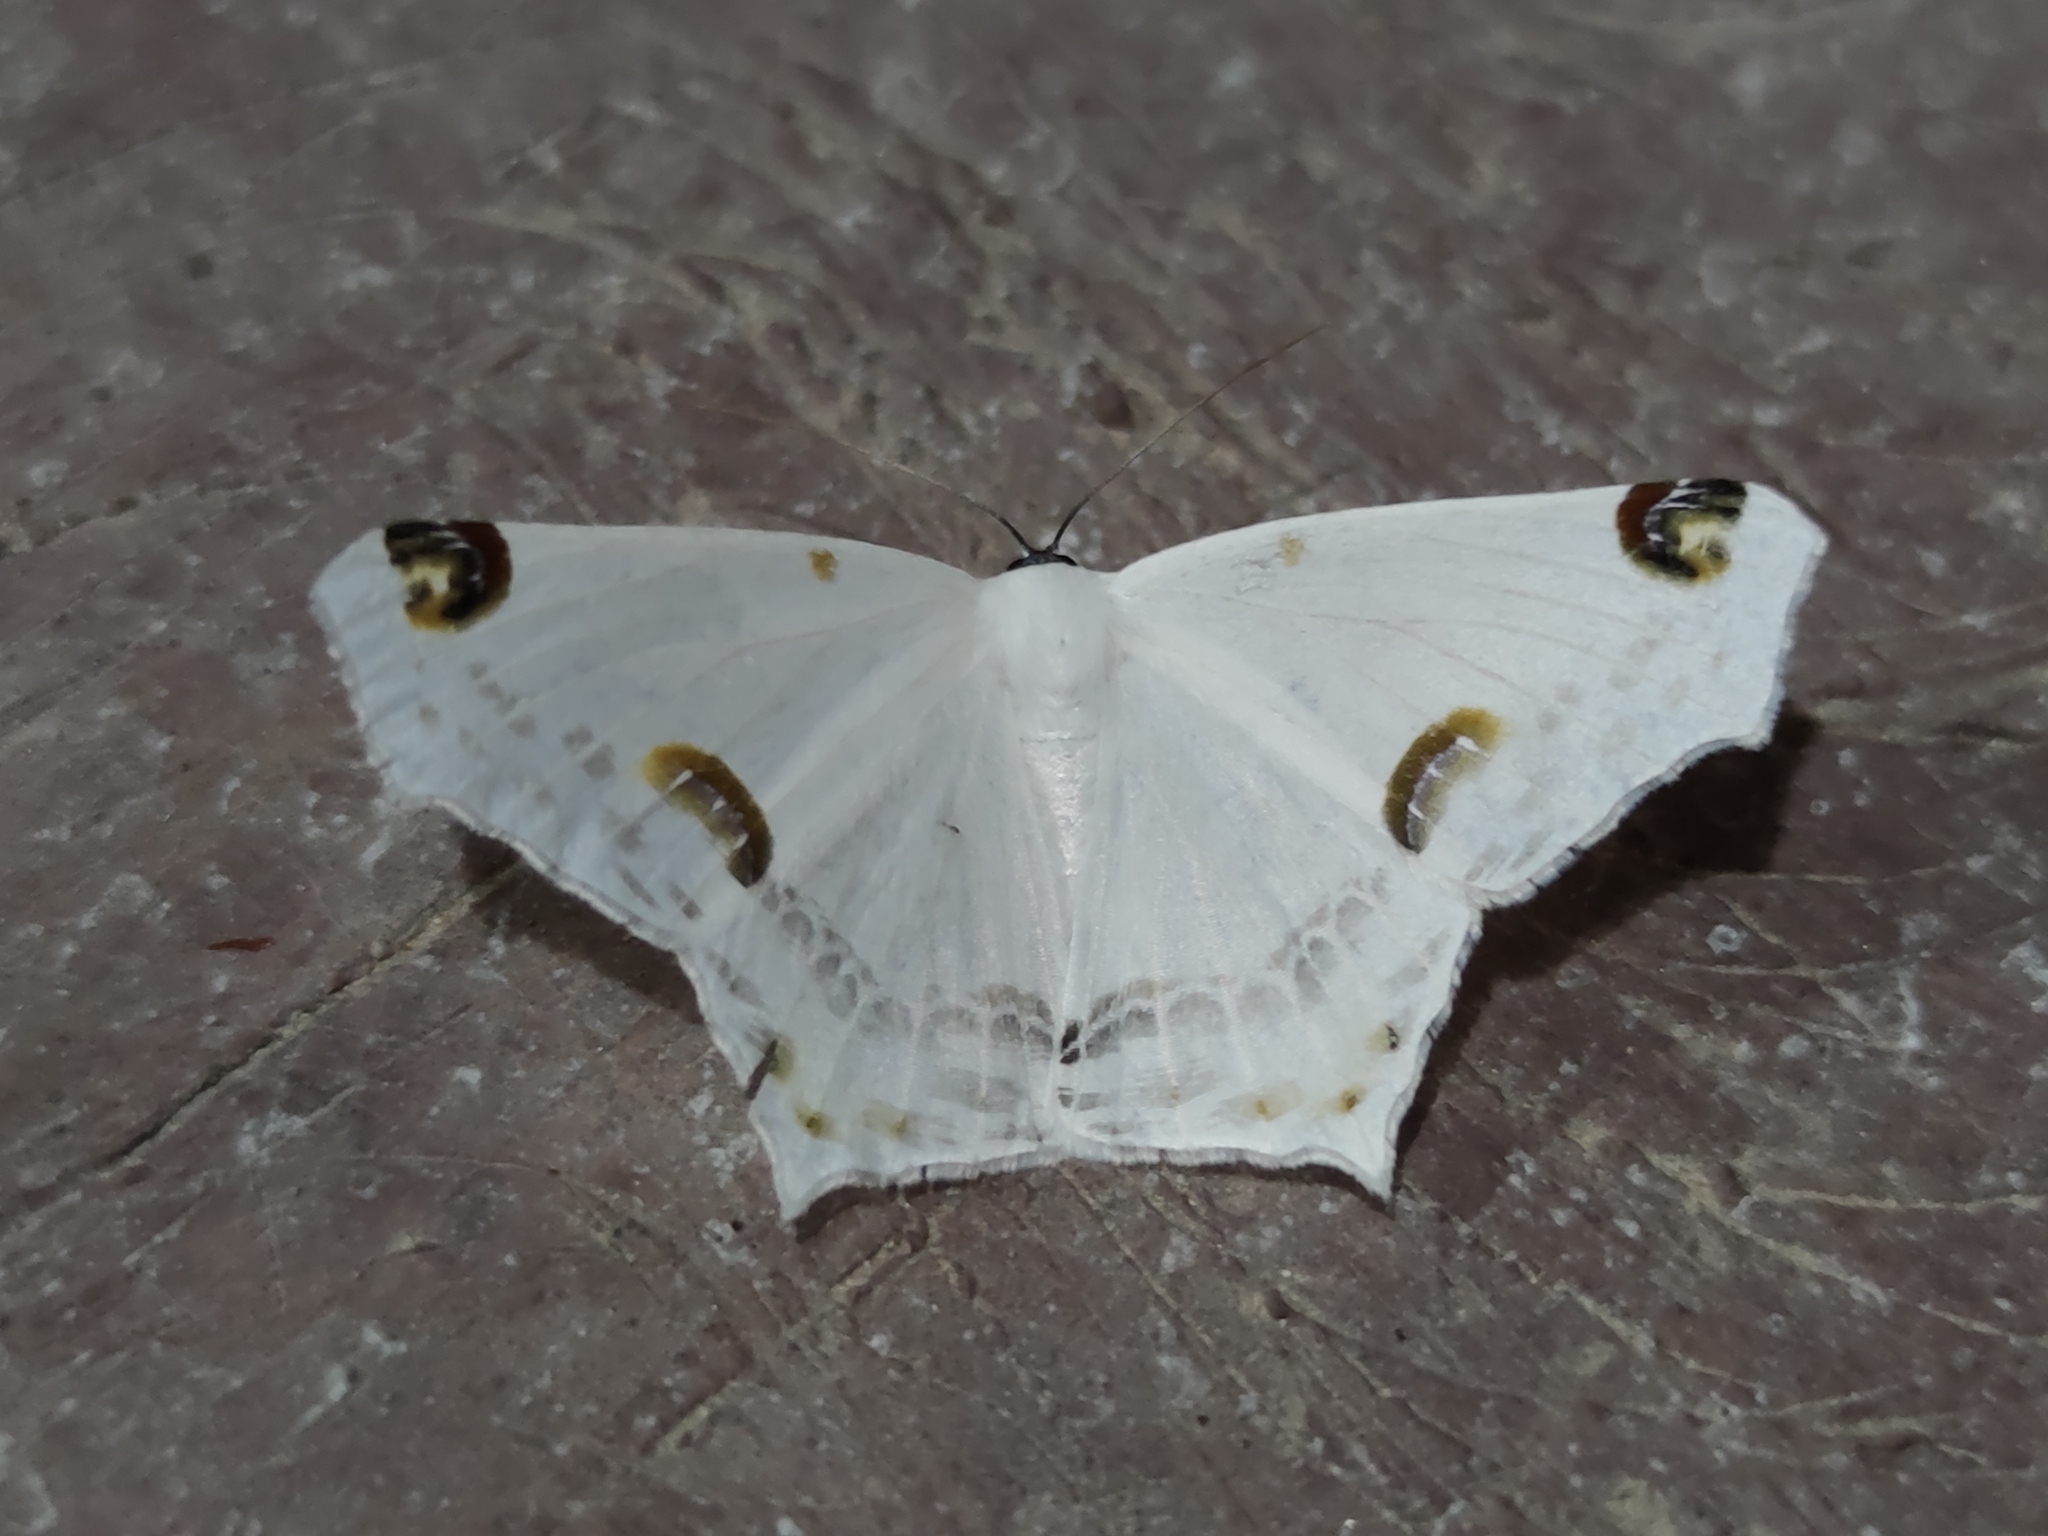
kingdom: Animalia
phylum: Arthropoda
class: Insecta
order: Lepidoptera
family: Geometridae
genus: Sericoptera
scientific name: Sericoptera mahometaria
